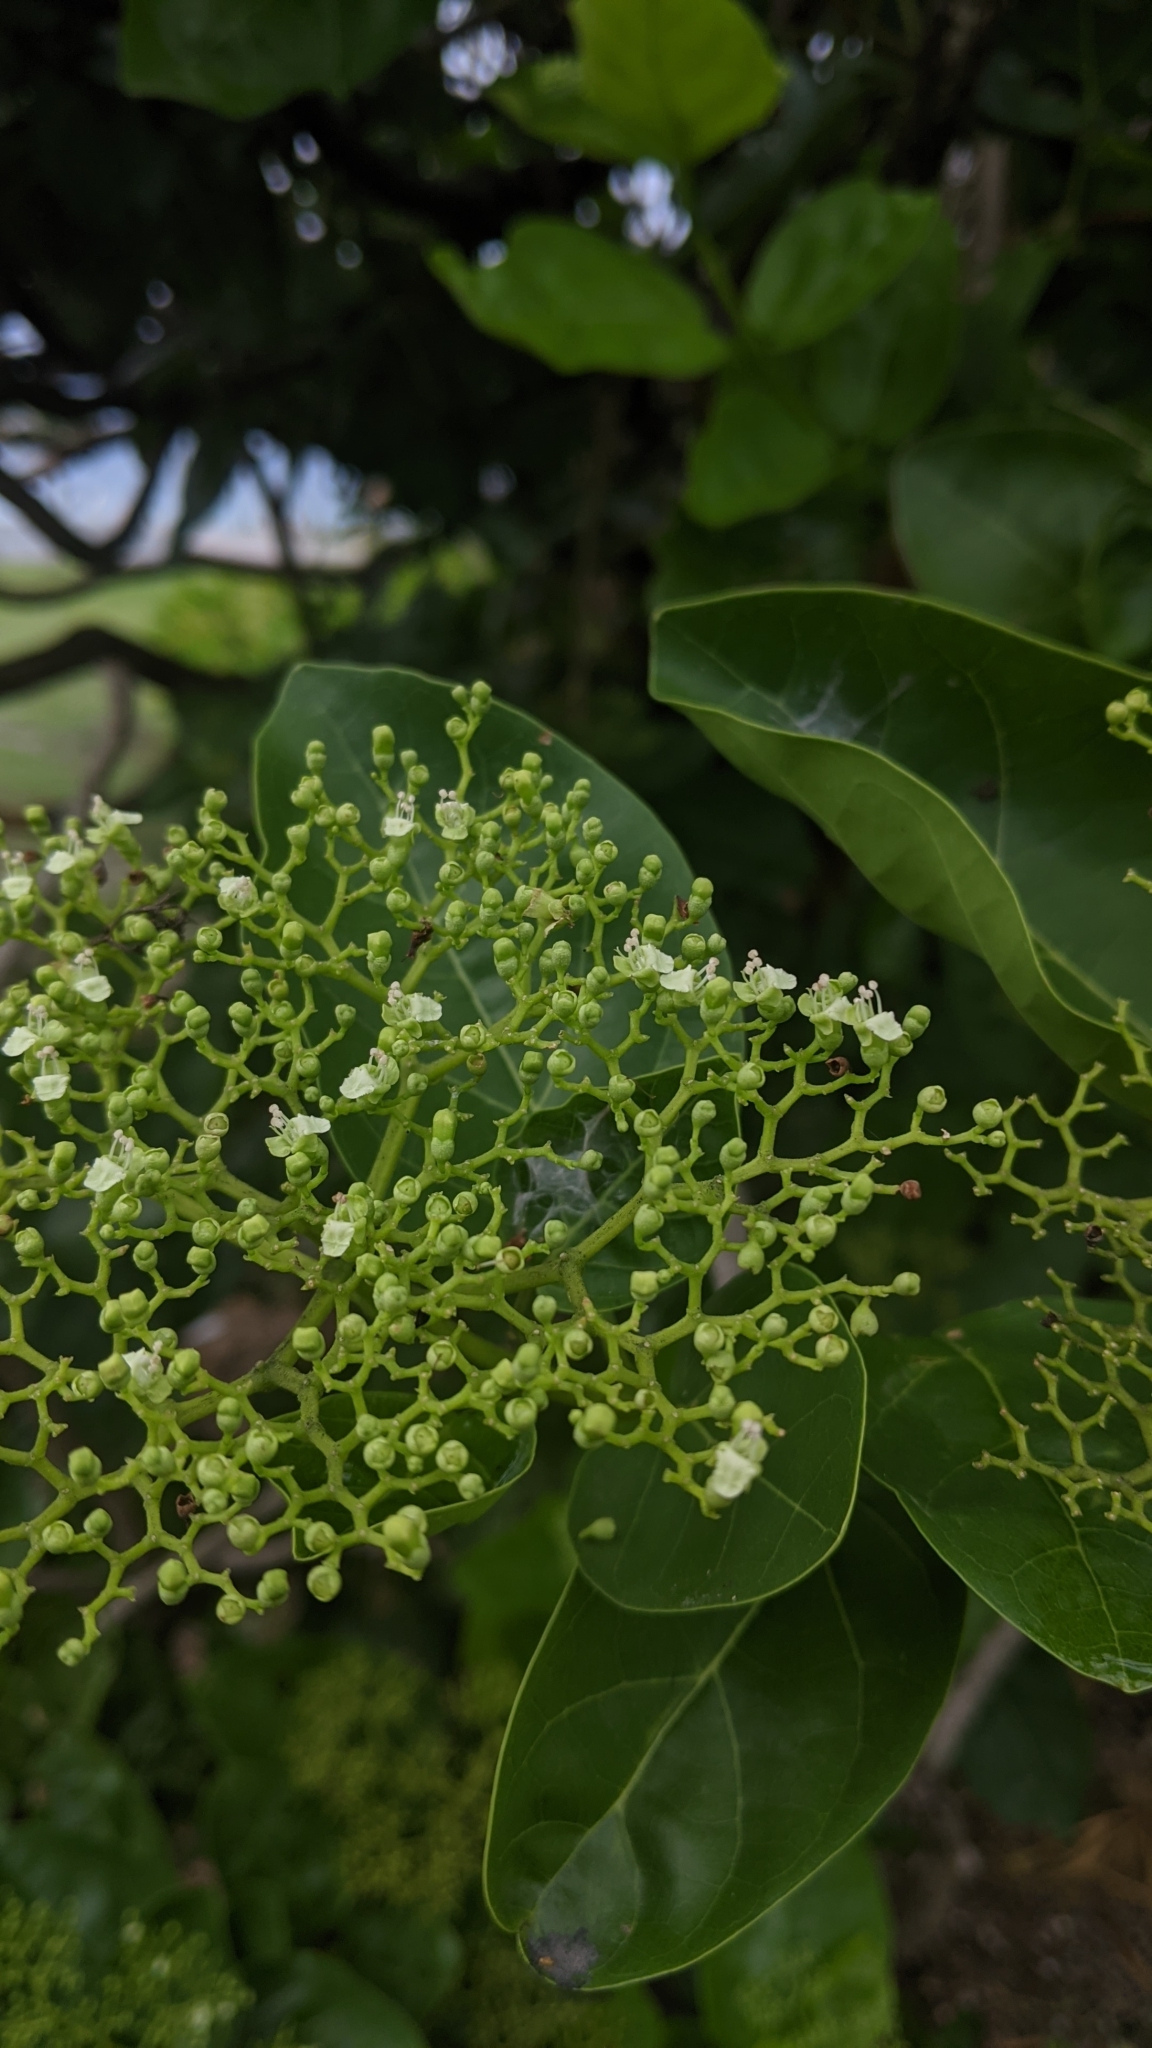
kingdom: Plantae
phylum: Tracheophyta
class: Magnoliopsida
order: Lamiales
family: Lamiaceae
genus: Premna
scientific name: Premna serratifolia
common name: Bastard guelder
